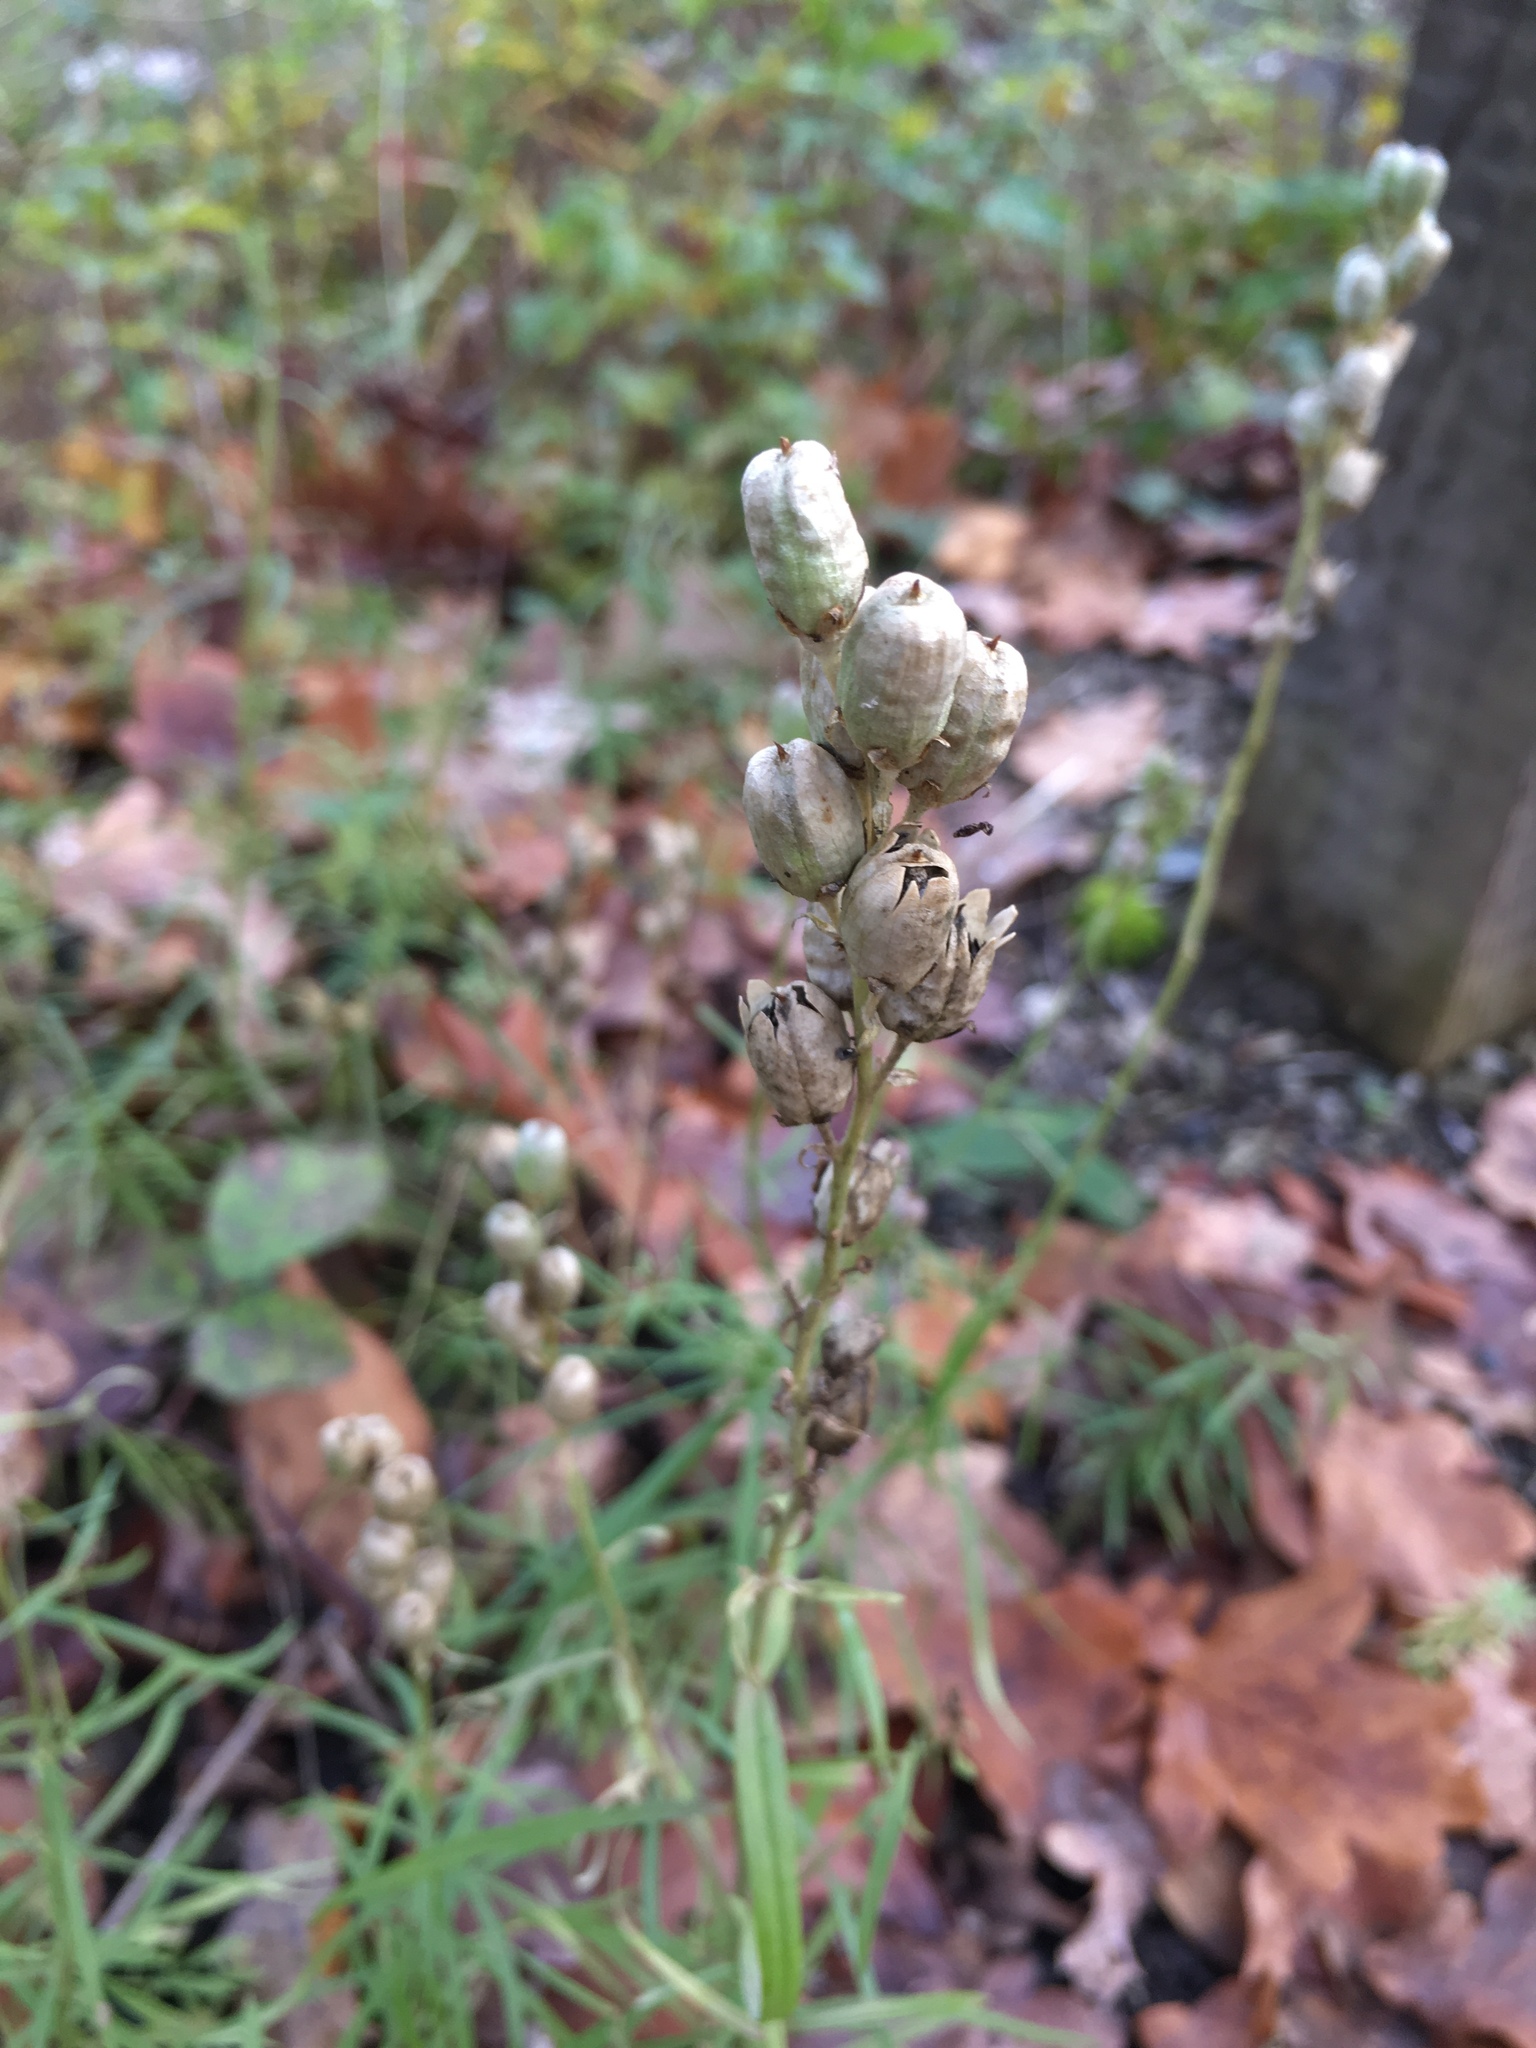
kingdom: Plantae
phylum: Tracheophyta
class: Magnoliopsida
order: Lamiales
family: Plantaginaceae
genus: Linaria
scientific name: Linaria vulgaris
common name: Butter and eggs
